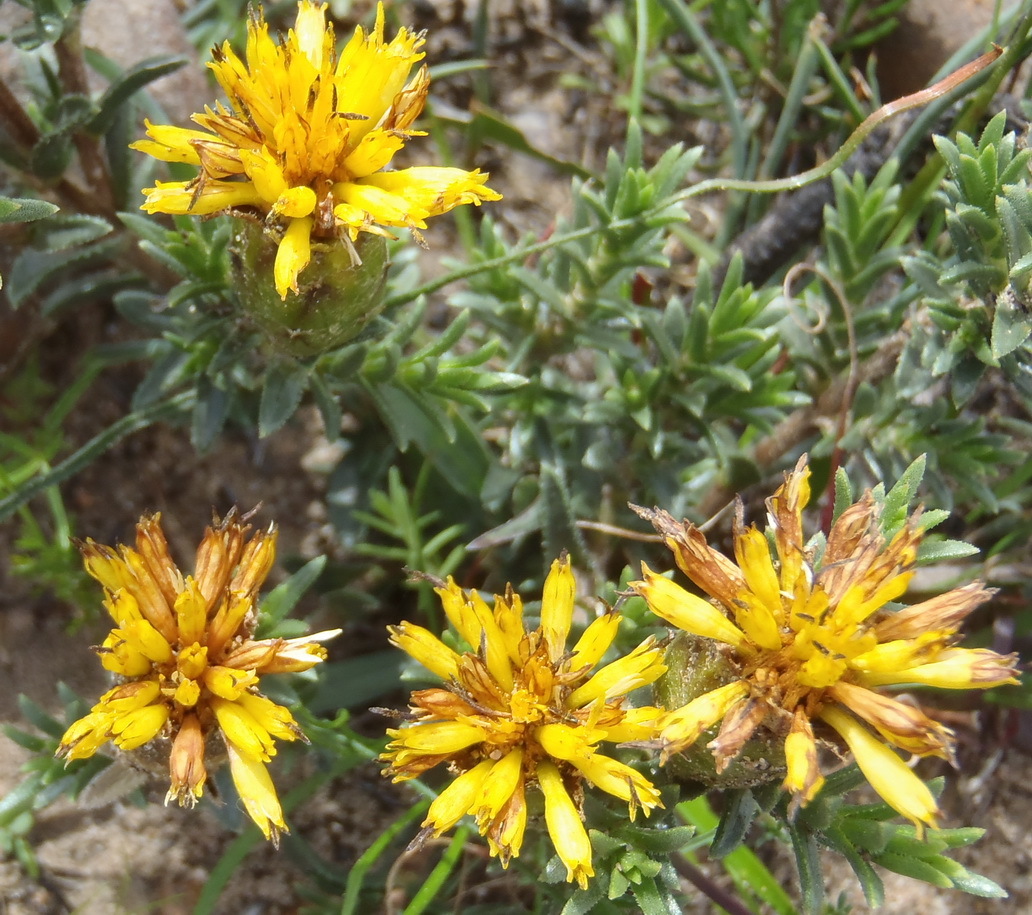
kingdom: Plantae
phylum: Tracheophyta
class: Magnoliopsida
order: Asterales
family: Asteraceae
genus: Pteronia
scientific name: Pteronia elongata
